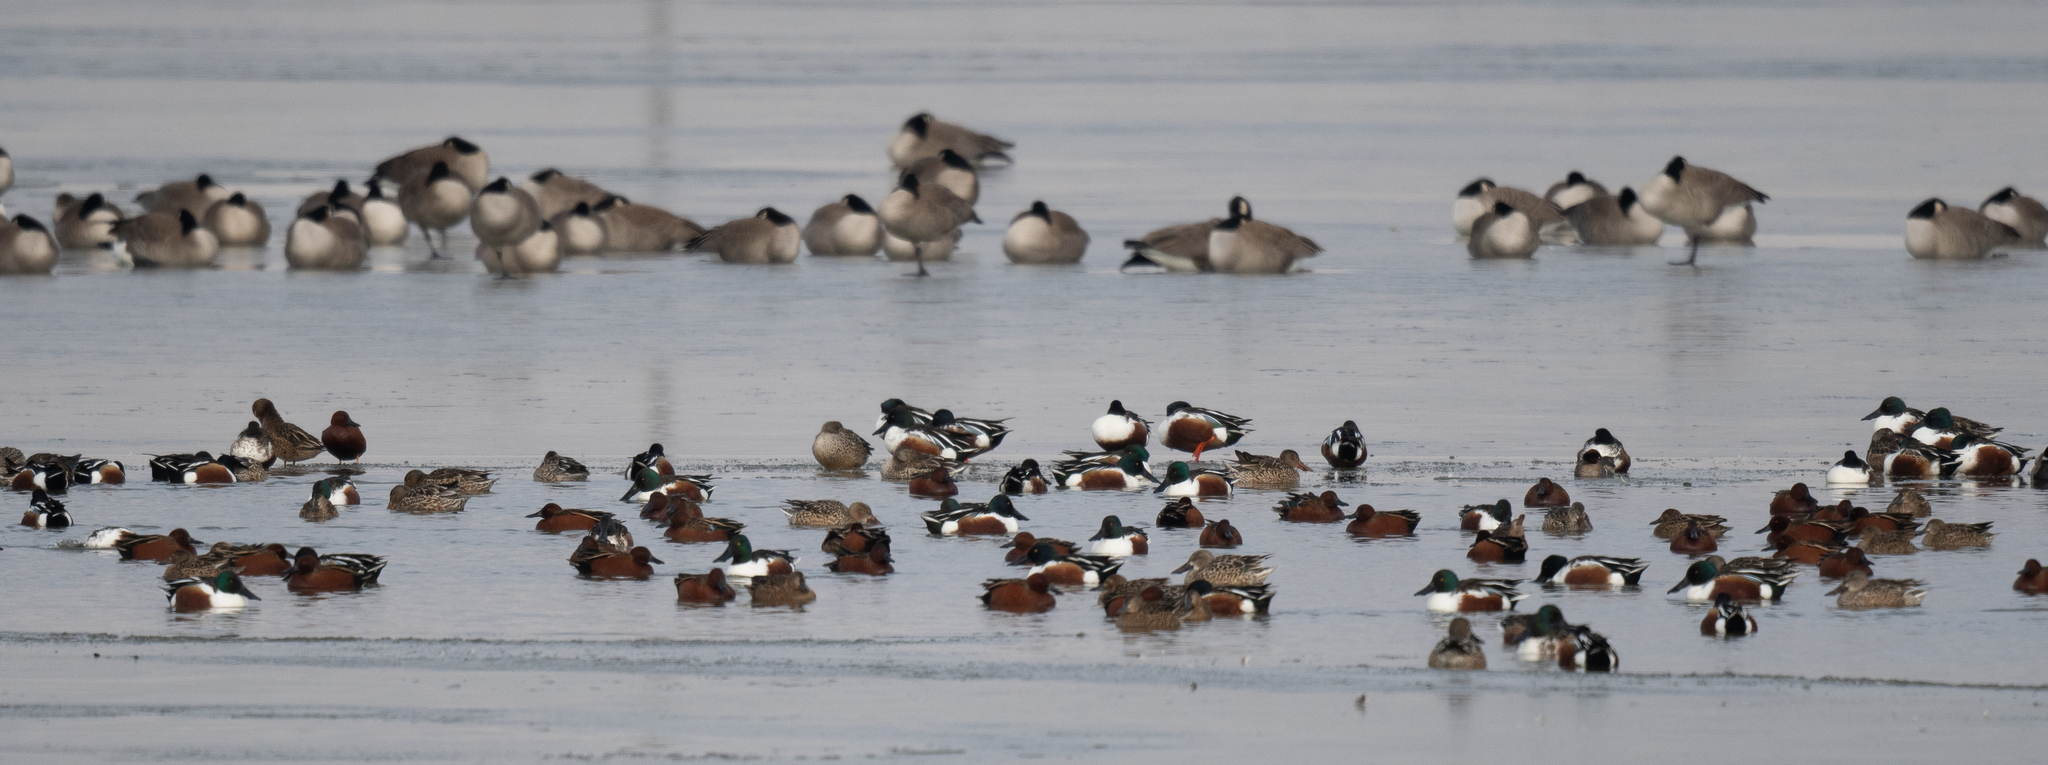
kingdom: Animalia
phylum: Chordata
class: Aves
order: Anseriformes
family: Anatidae
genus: Spatula
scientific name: Spatula cyanoptera
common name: Cinnamon teal
